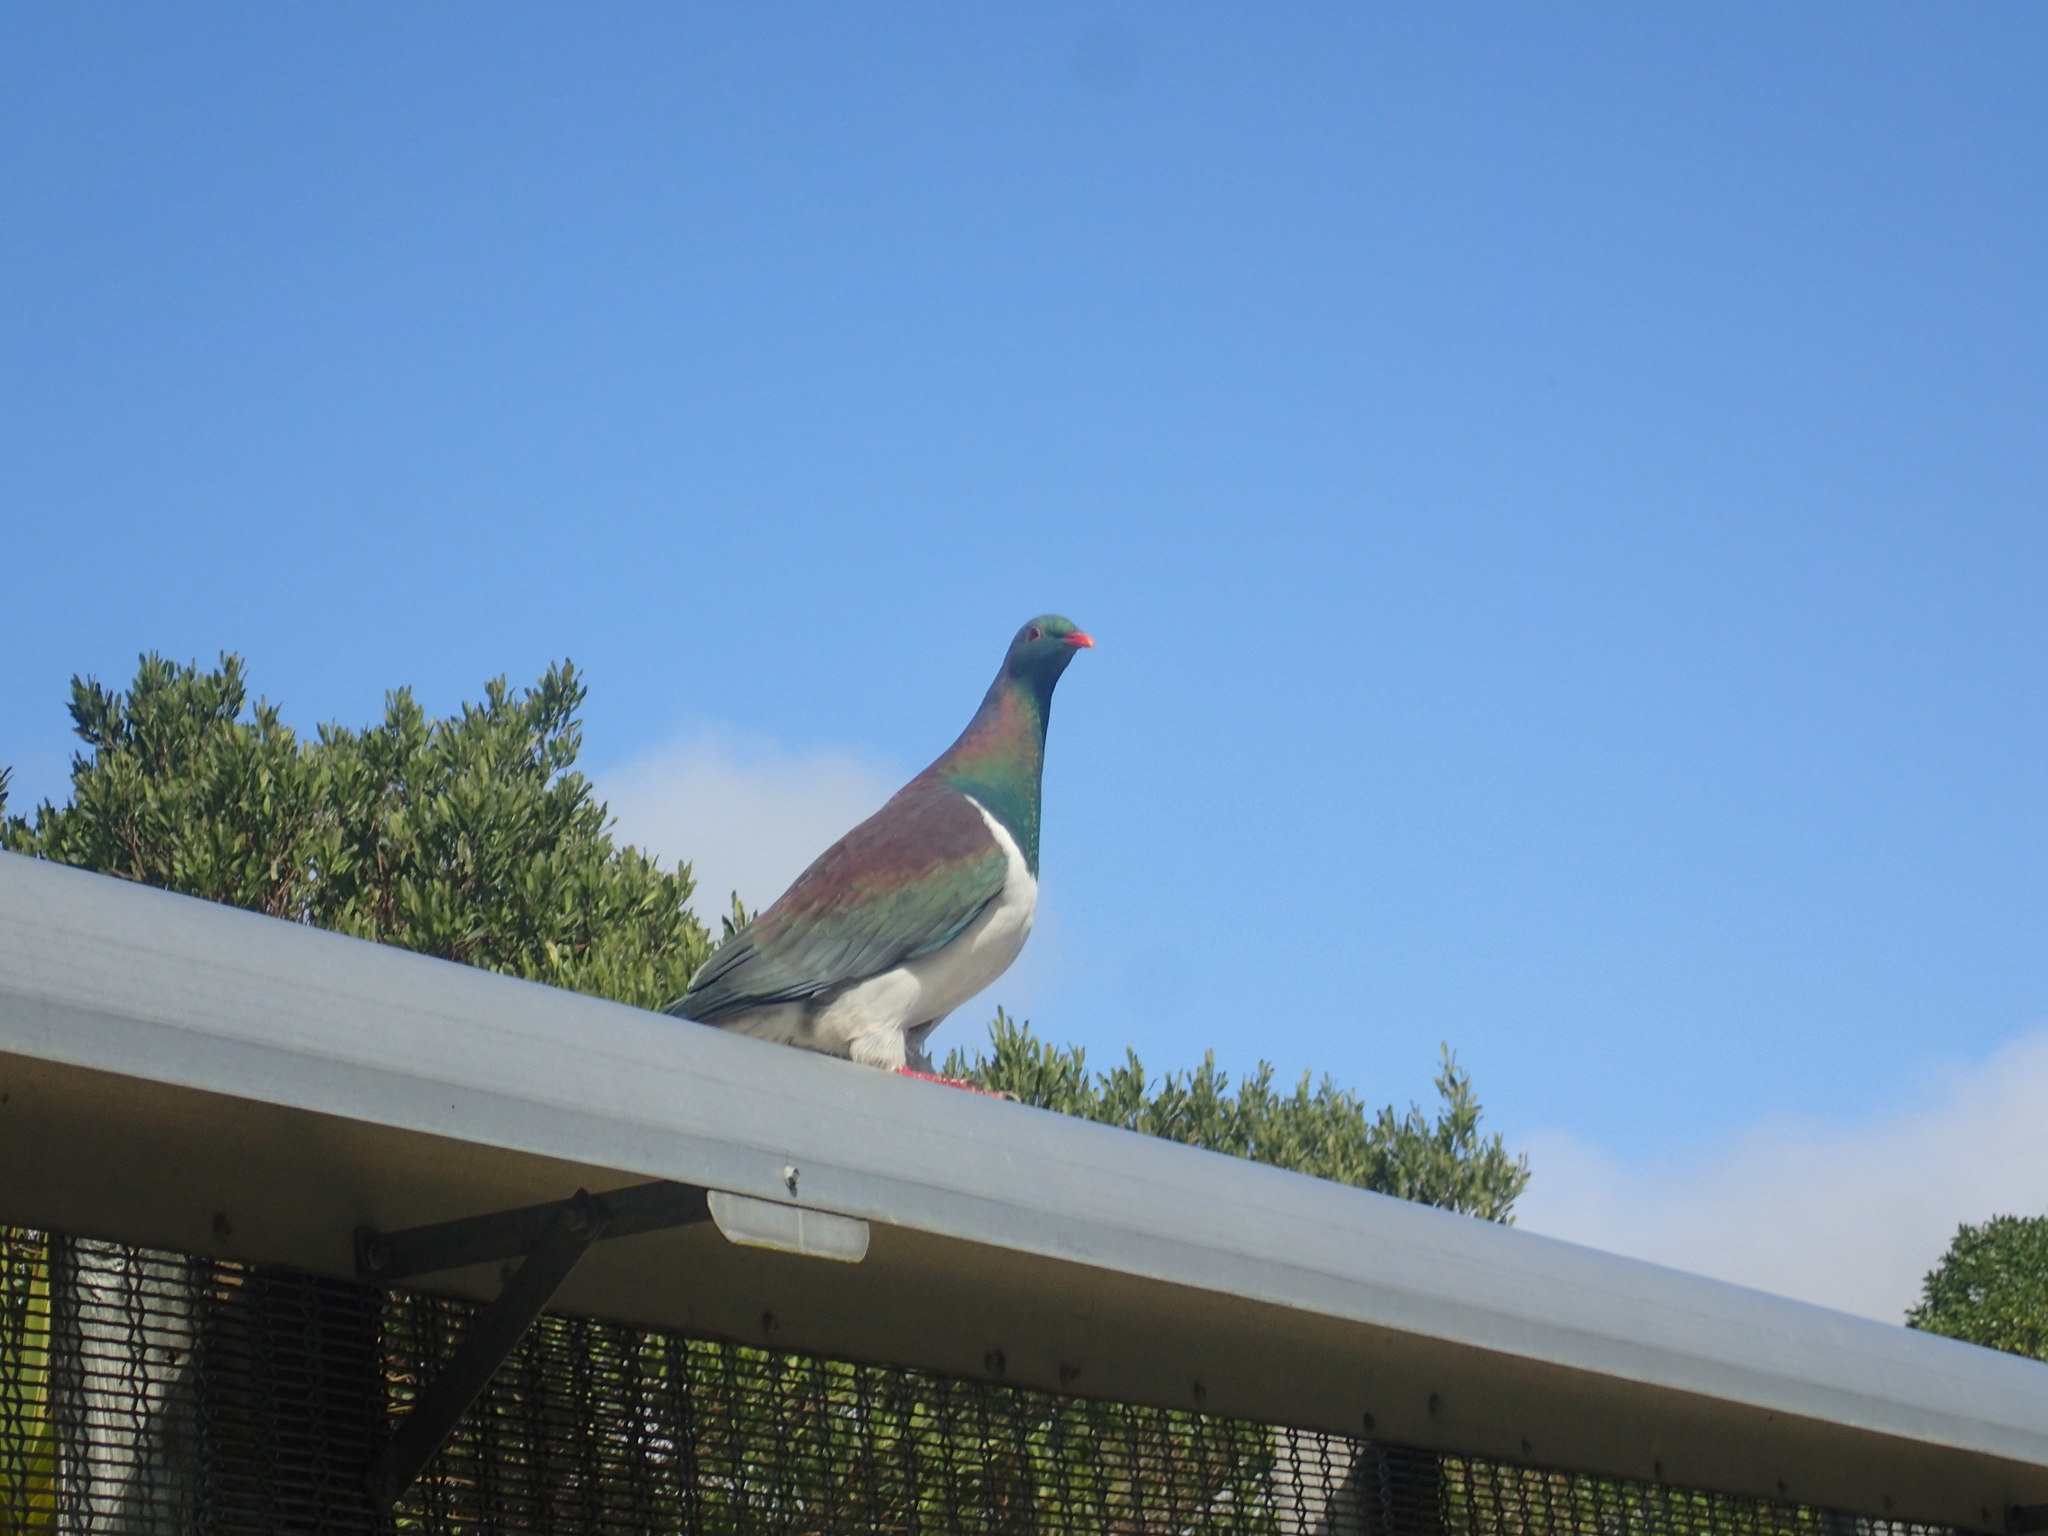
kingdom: Animalia
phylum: Chordata
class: Aves
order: Columbiformes
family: Columbidae
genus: Hemiphaga
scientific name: Hemiphaga novaeseelandiae
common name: New zealand pigeon
